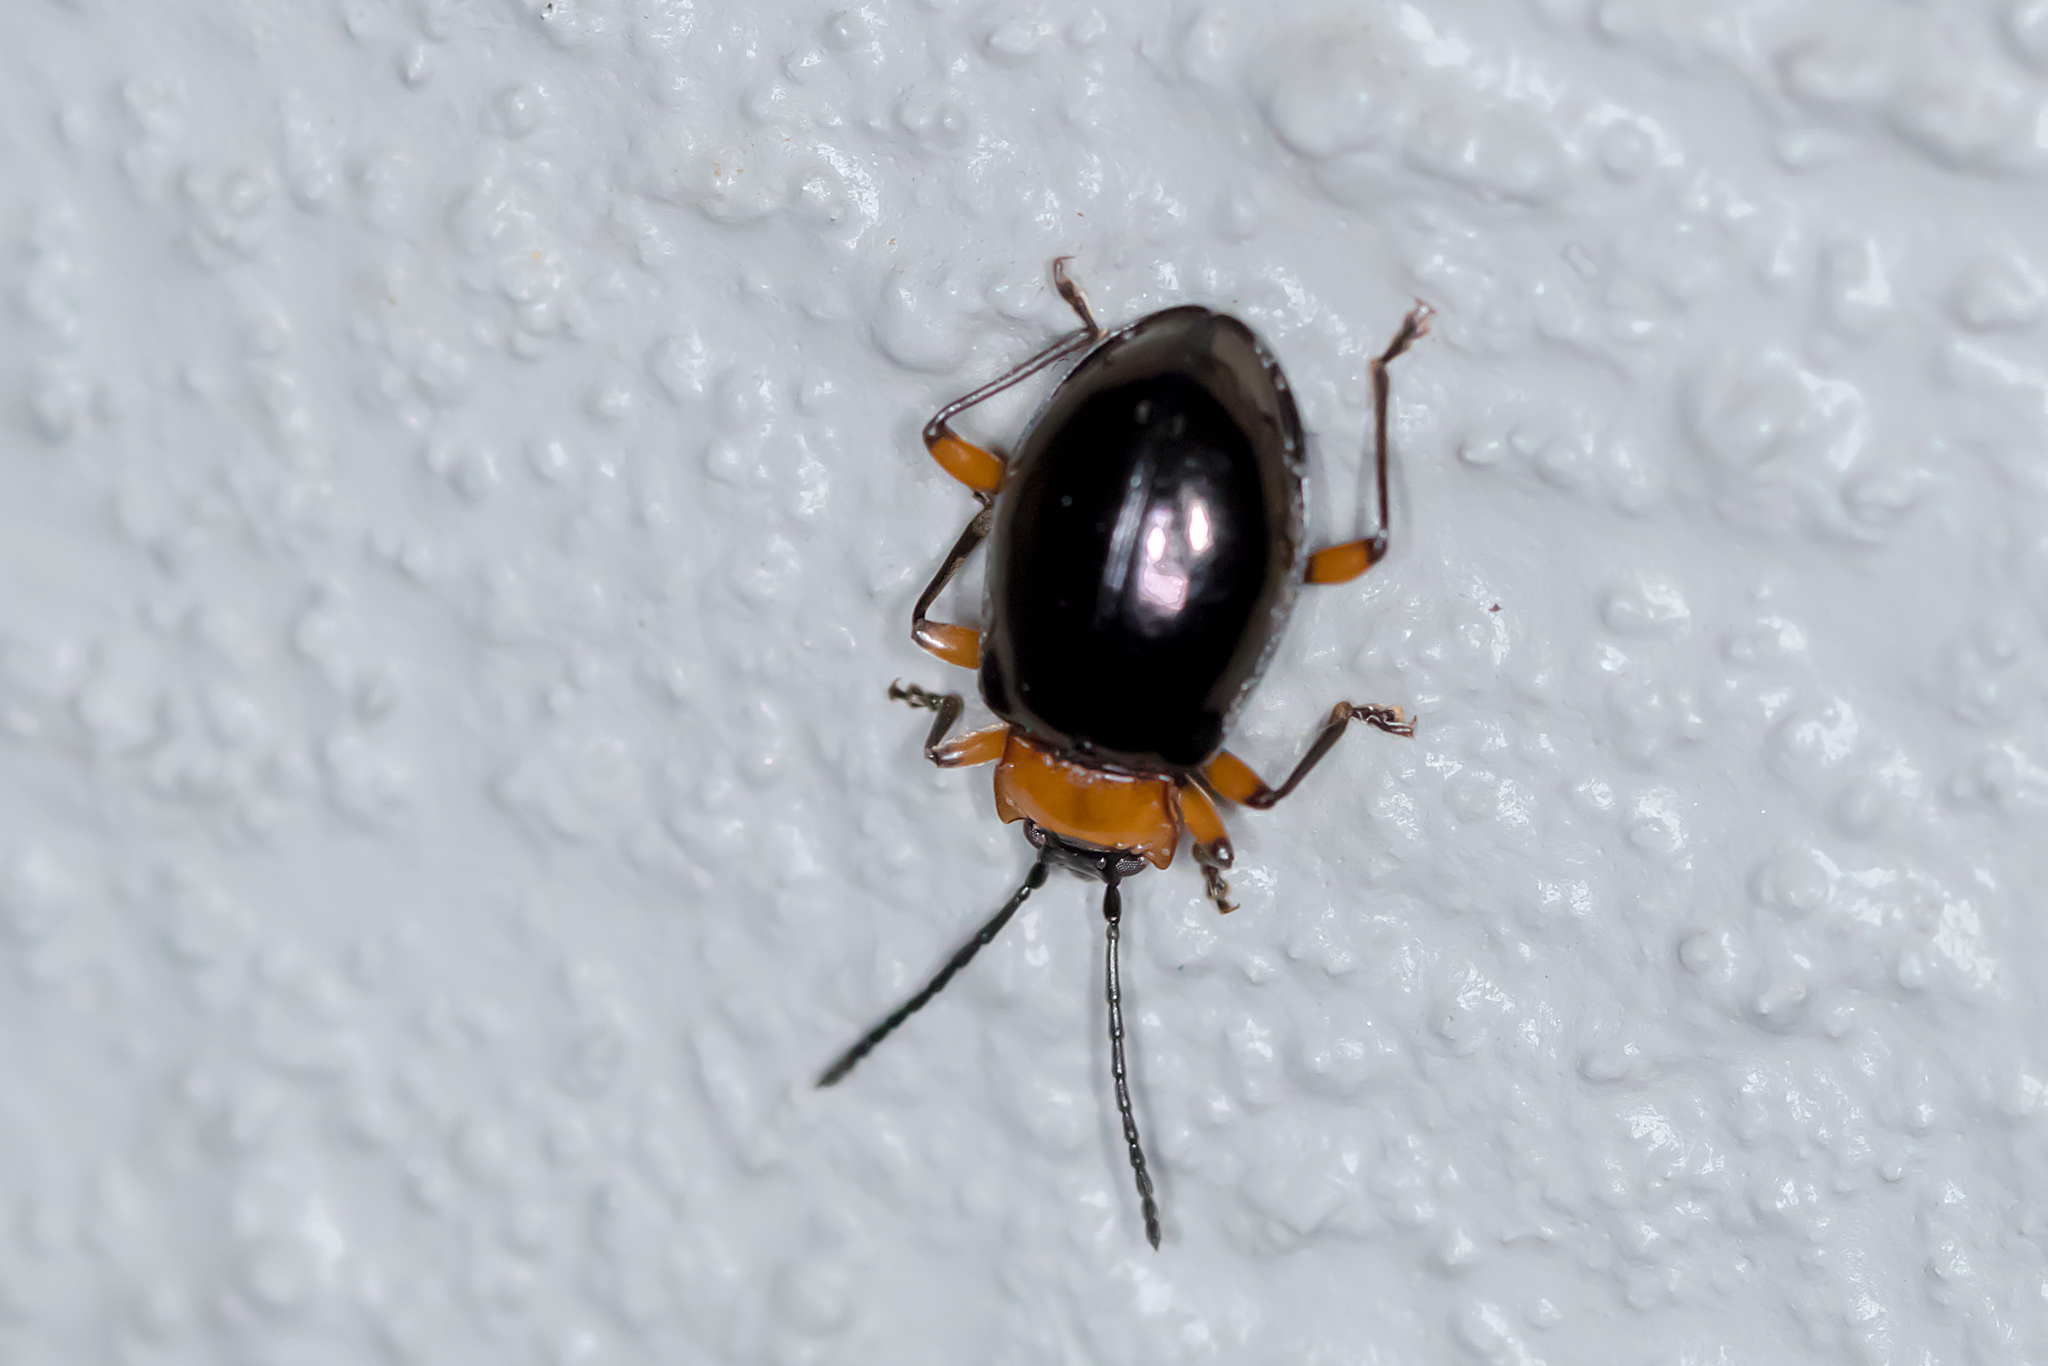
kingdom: Animalia
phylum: Arthropoda
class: Insecta
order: Coleoptera
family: Endomychidae
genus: Encymon
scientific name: Encymon
